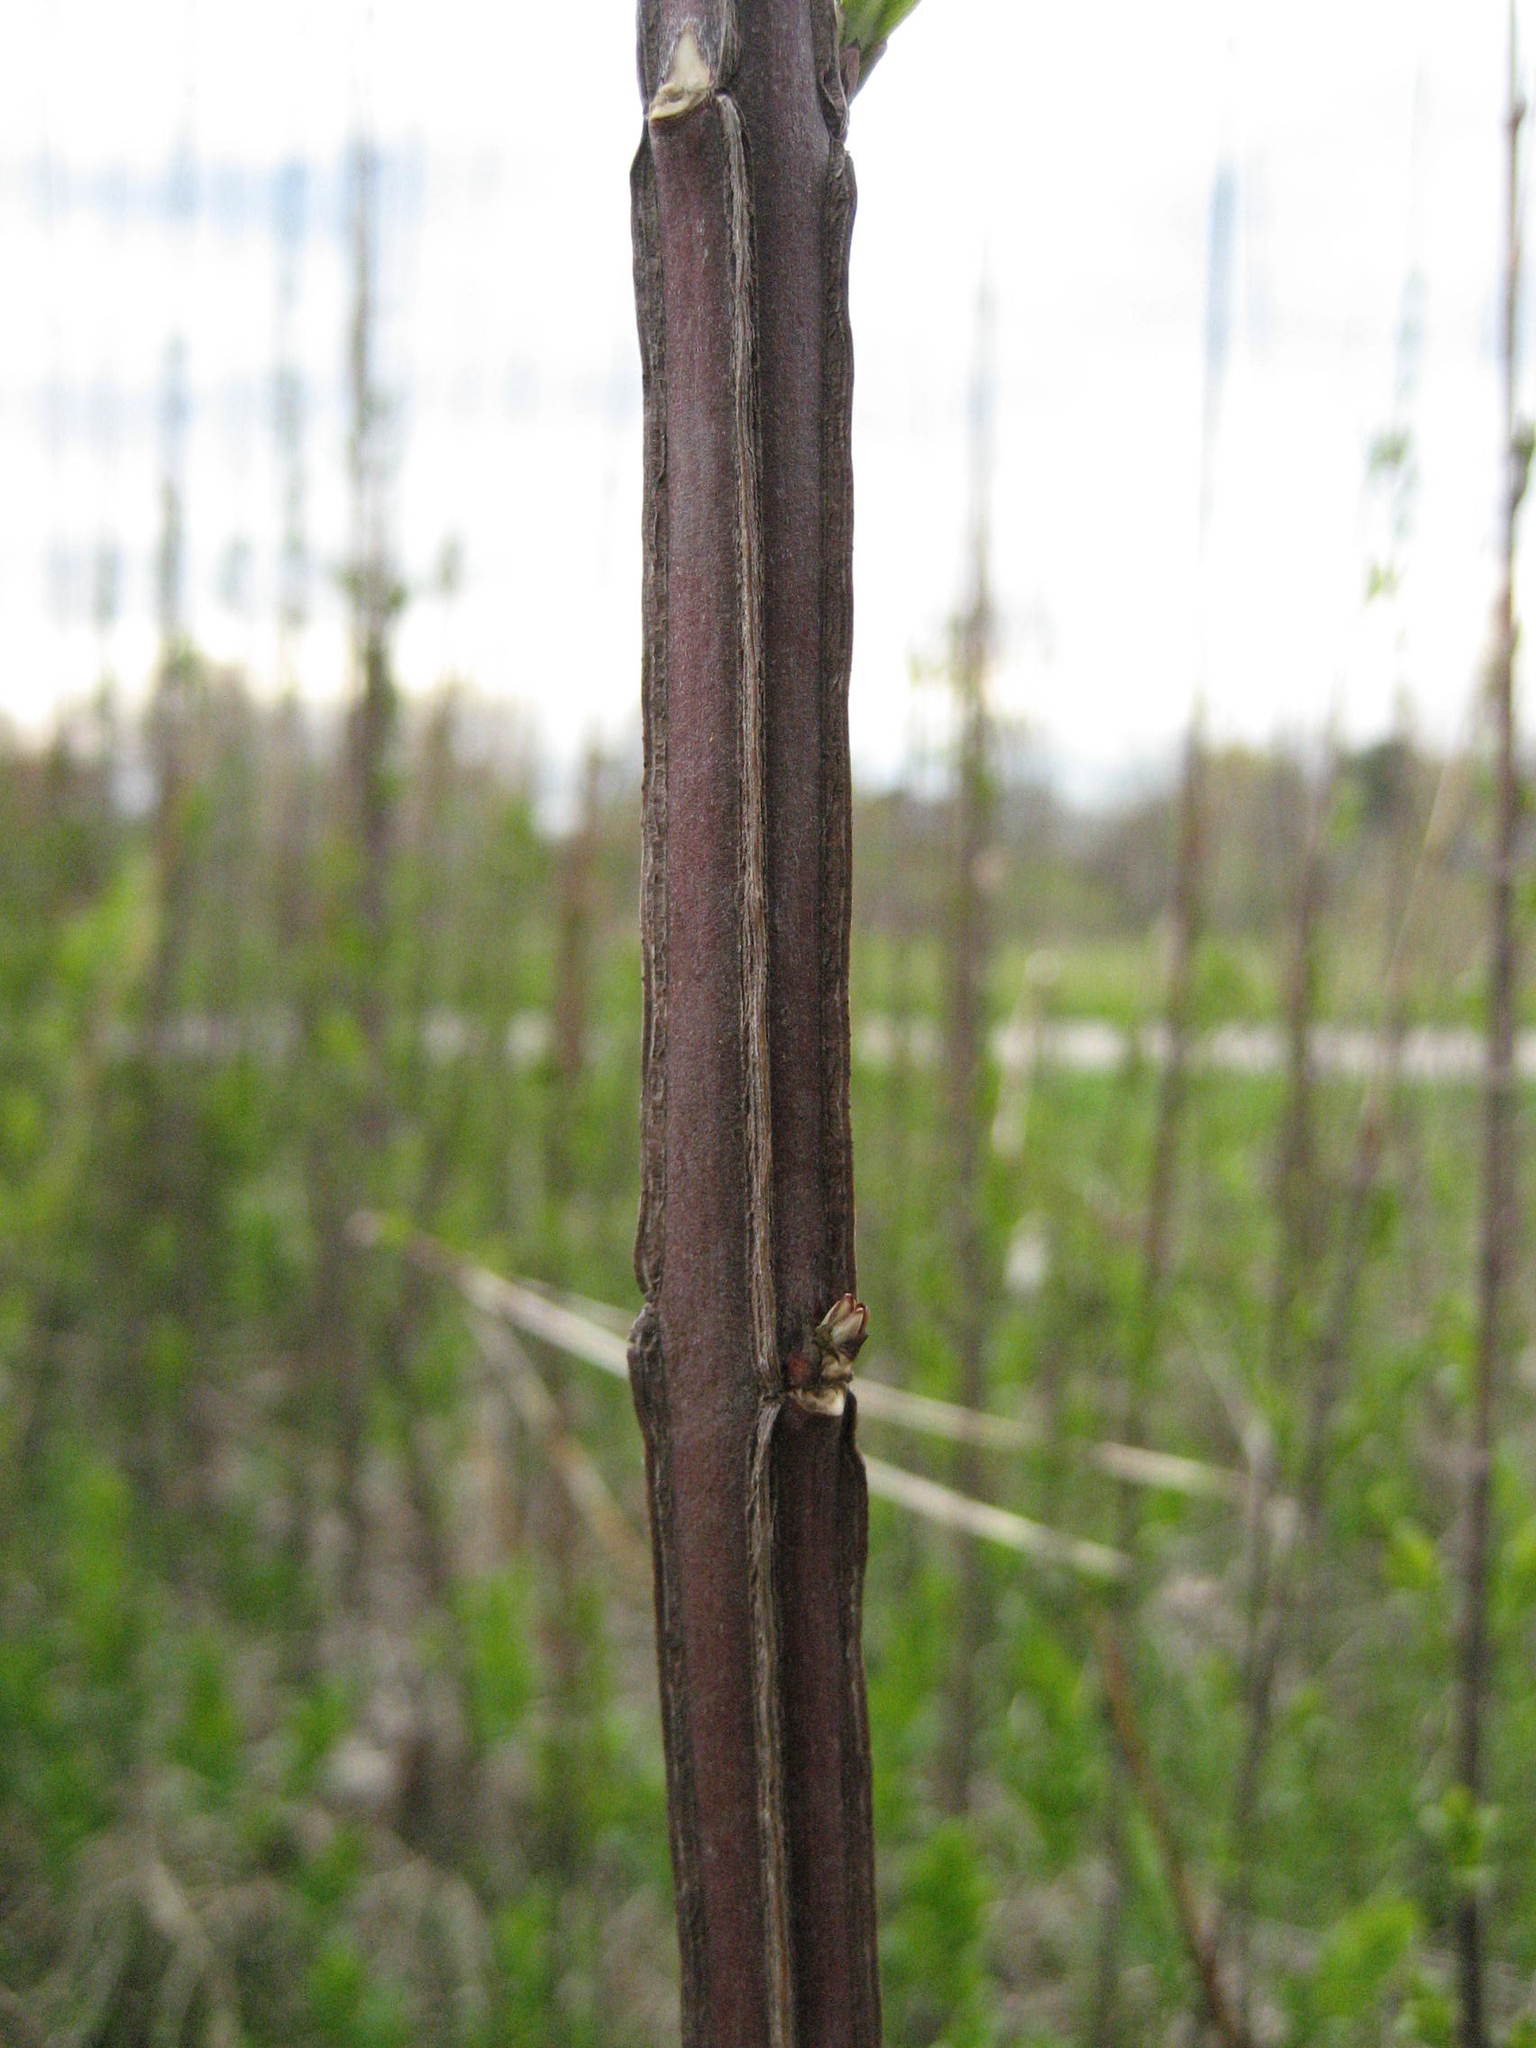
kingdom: Plantae
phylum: Tracheophyta
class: Magnoliopsida
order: Celastrales
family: Celastraceae
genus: Euonymus
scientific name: Euonymus europaeus
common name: Spindle
